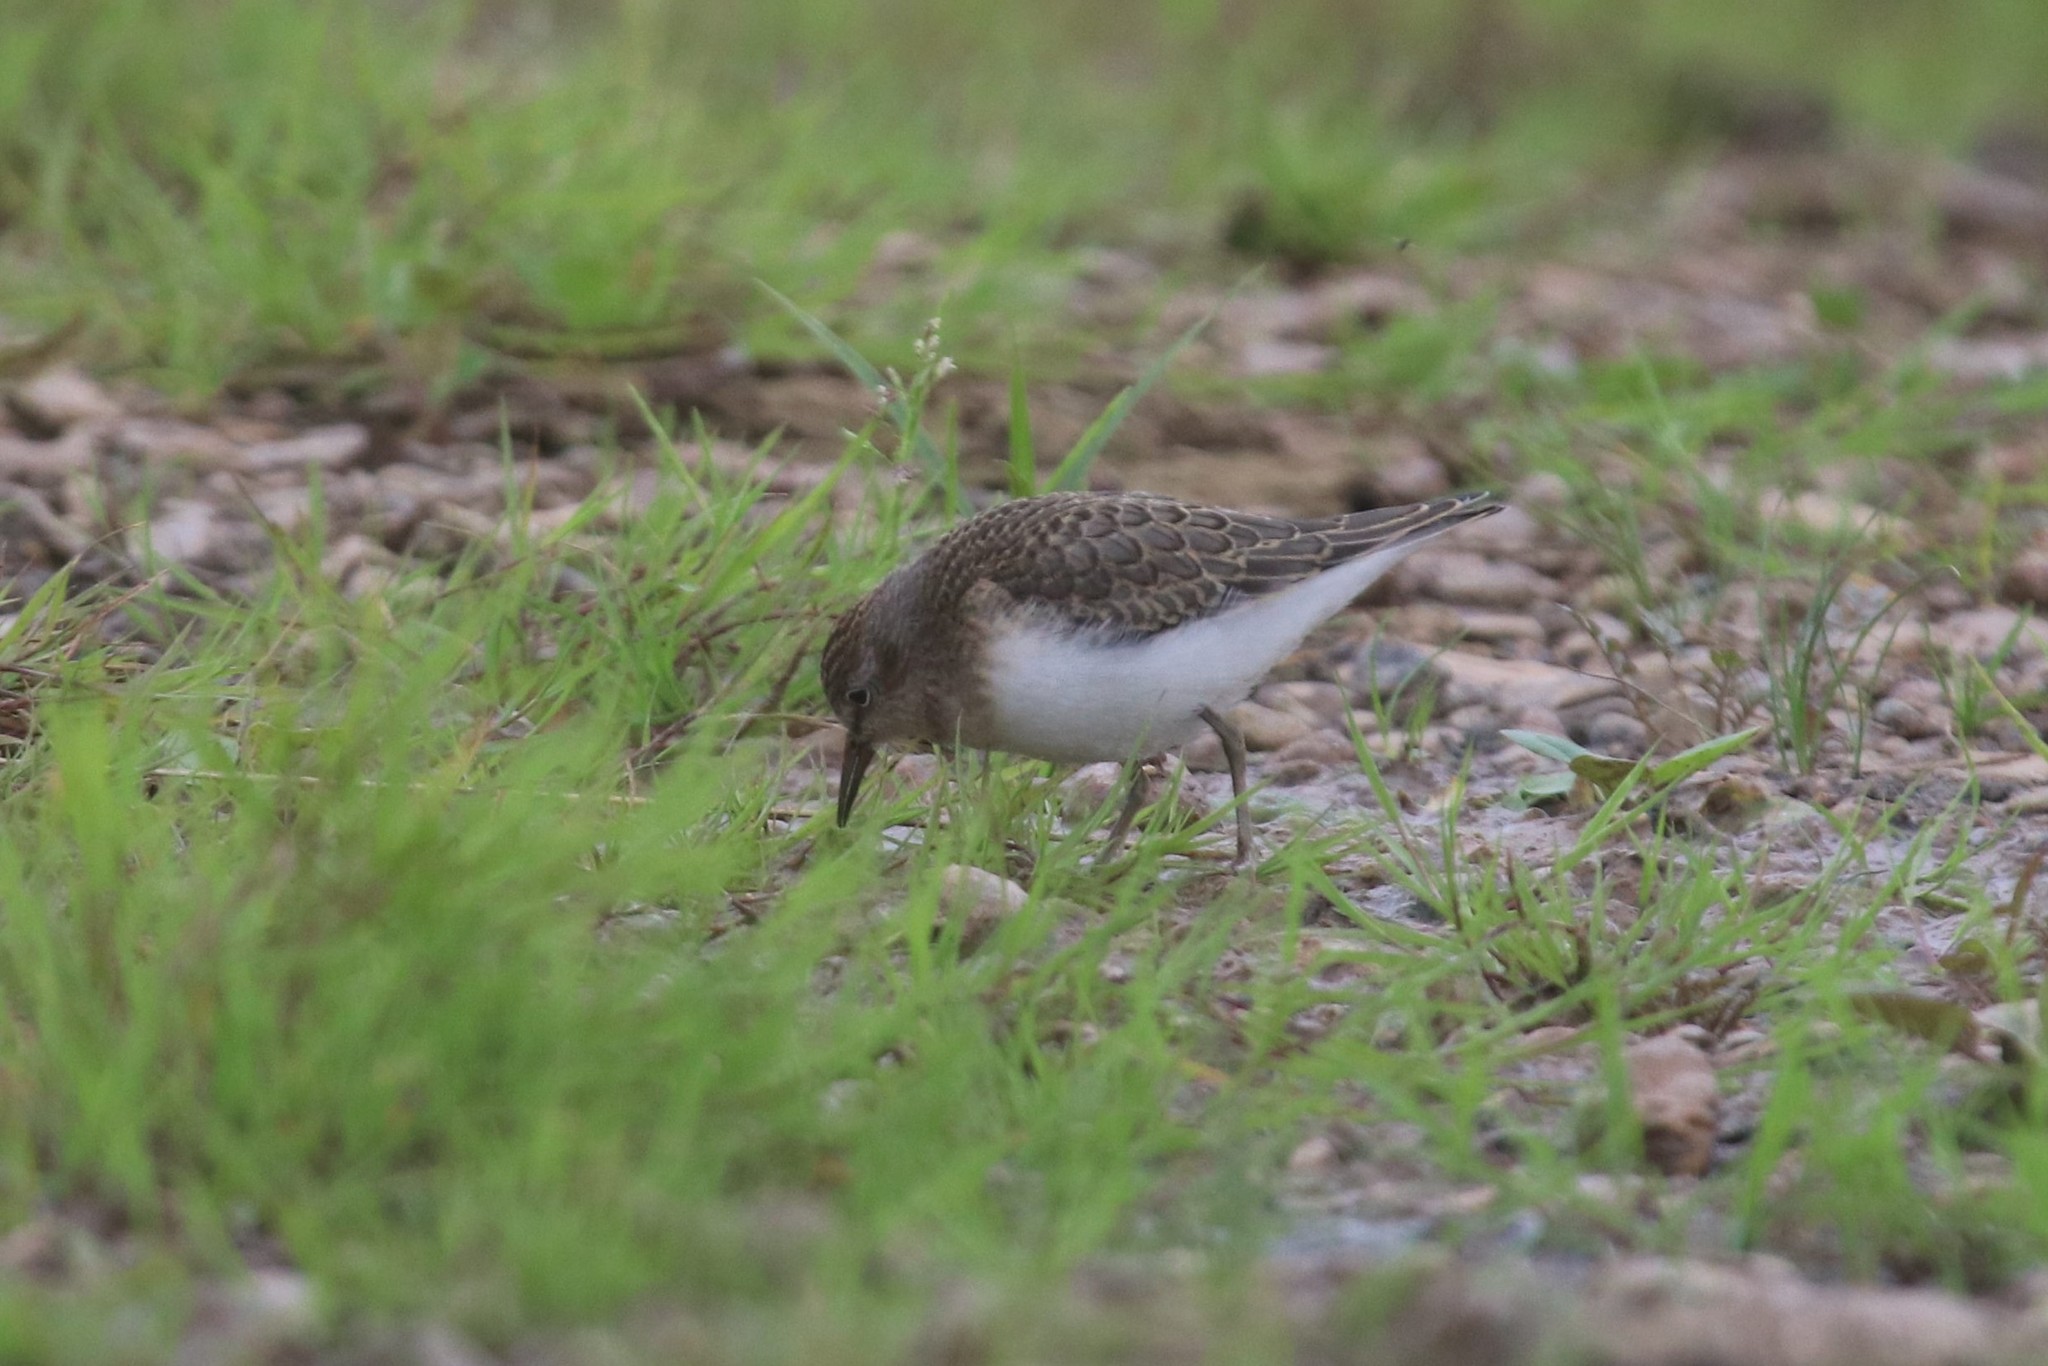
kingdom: Animalia
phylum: Chordata
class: Aves
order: Charadriiformes
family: Scolopacidae
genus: Calidris
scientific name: Calidris temminckii
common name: Temminck's stint
